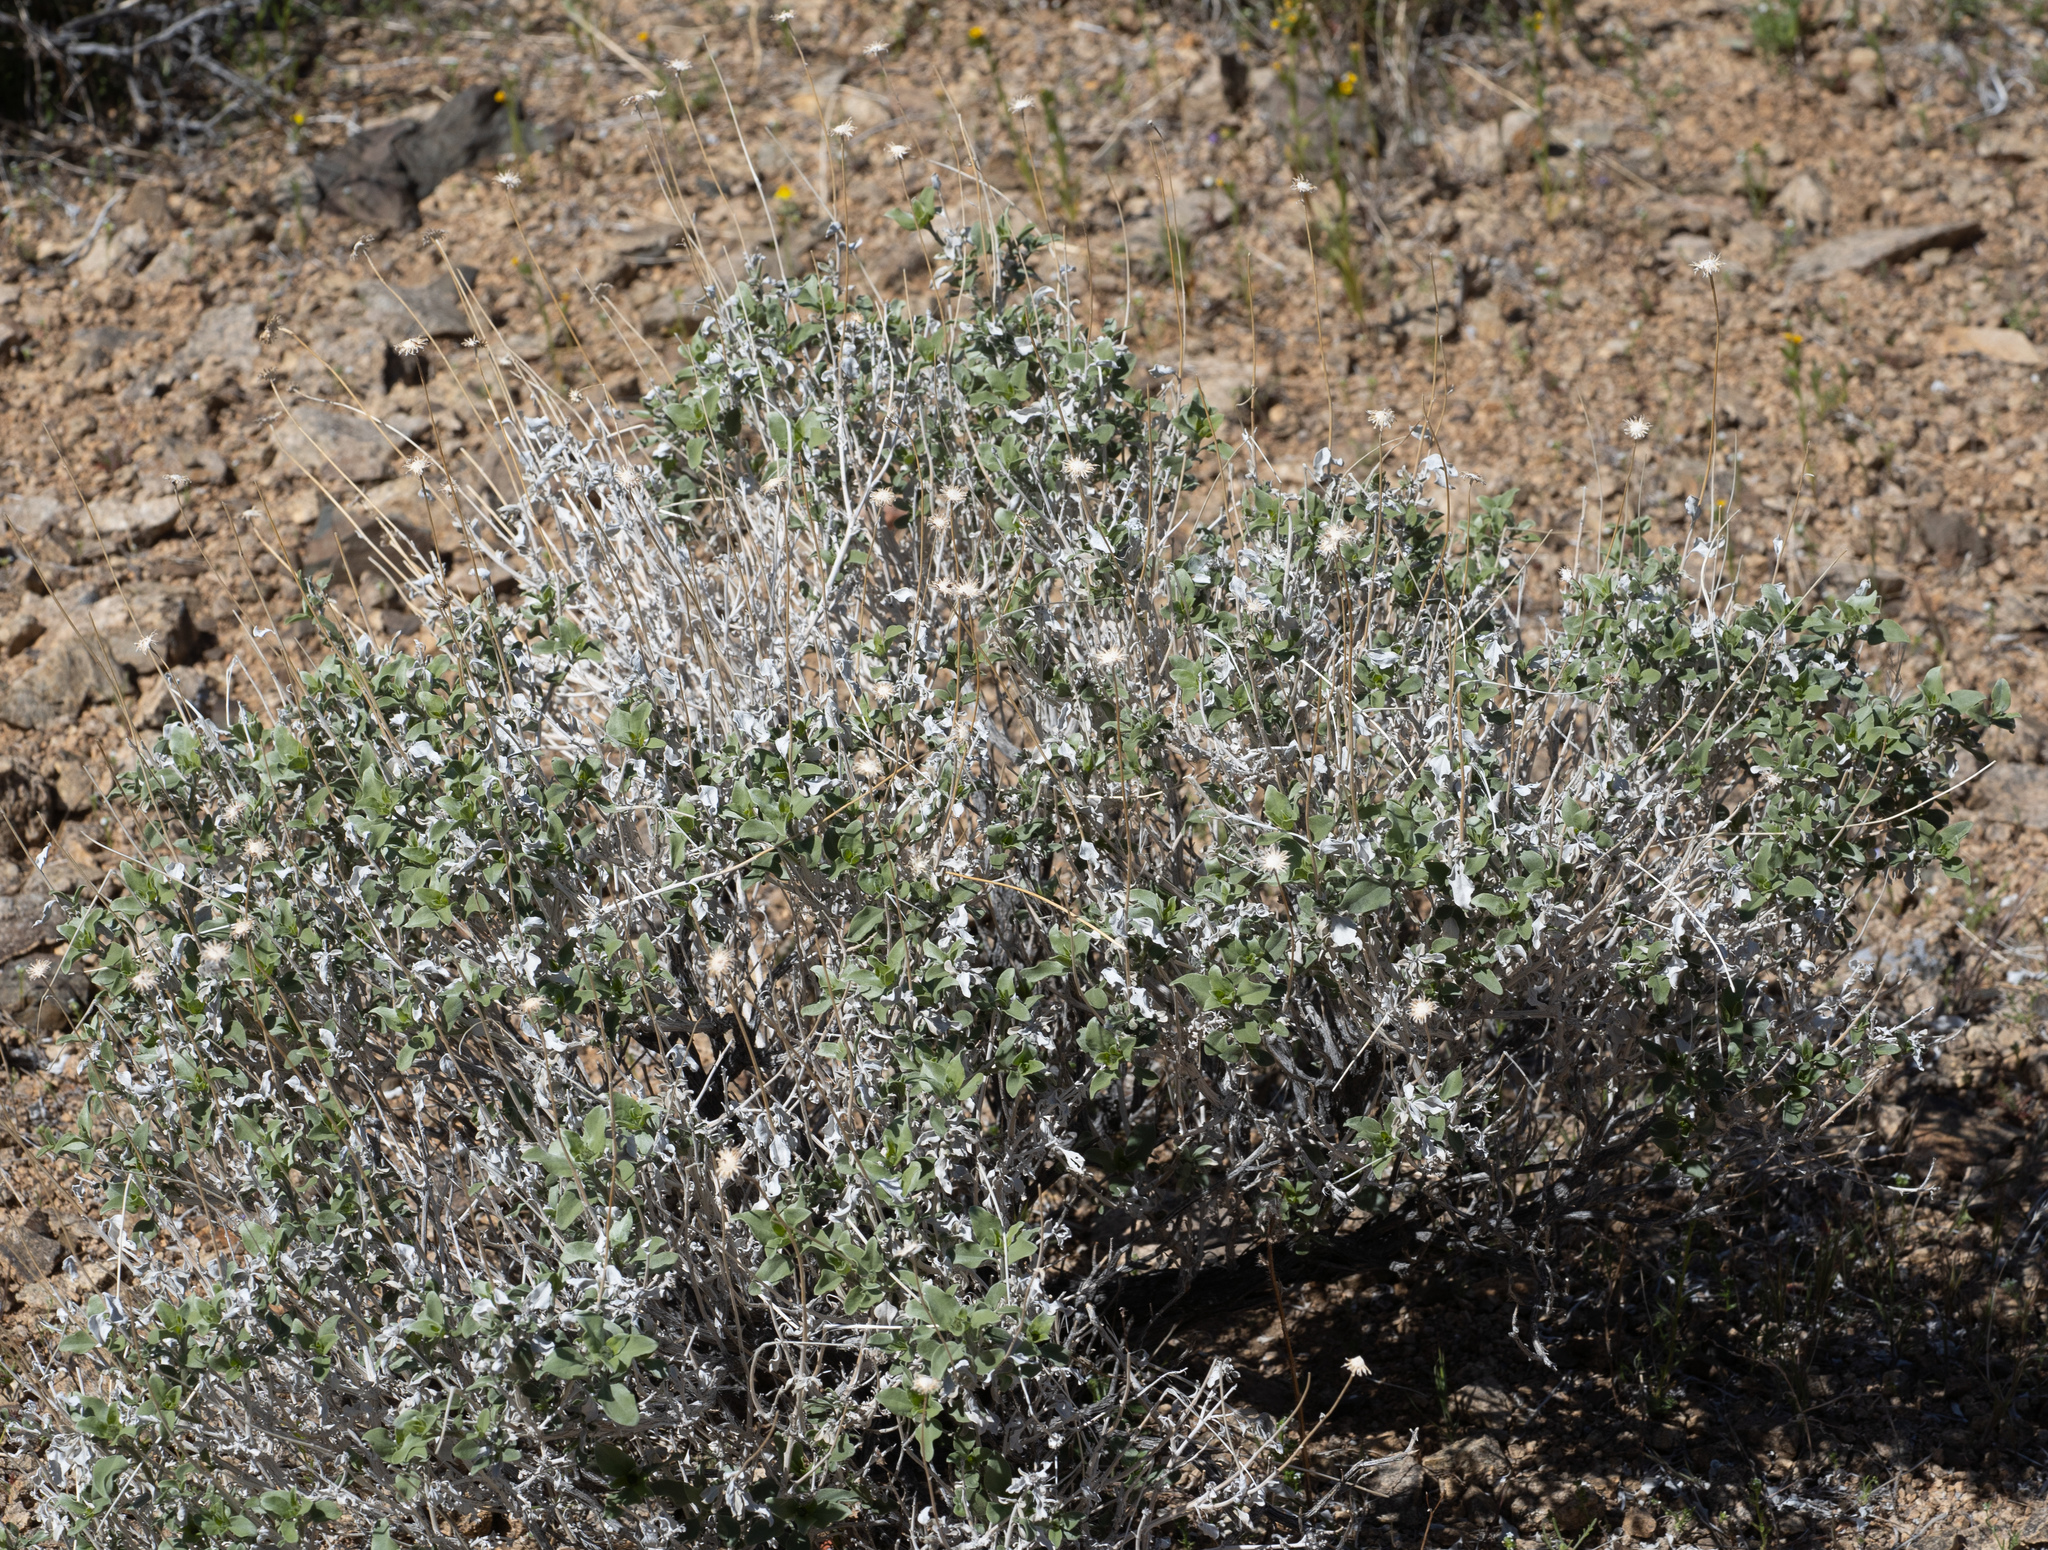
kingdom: Plantae
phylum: Tracheophyta
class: Magnoliopsida
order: Asterales
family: Asteraceae
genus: Encelia
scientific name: Encelia actoni
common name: Acton encelia
